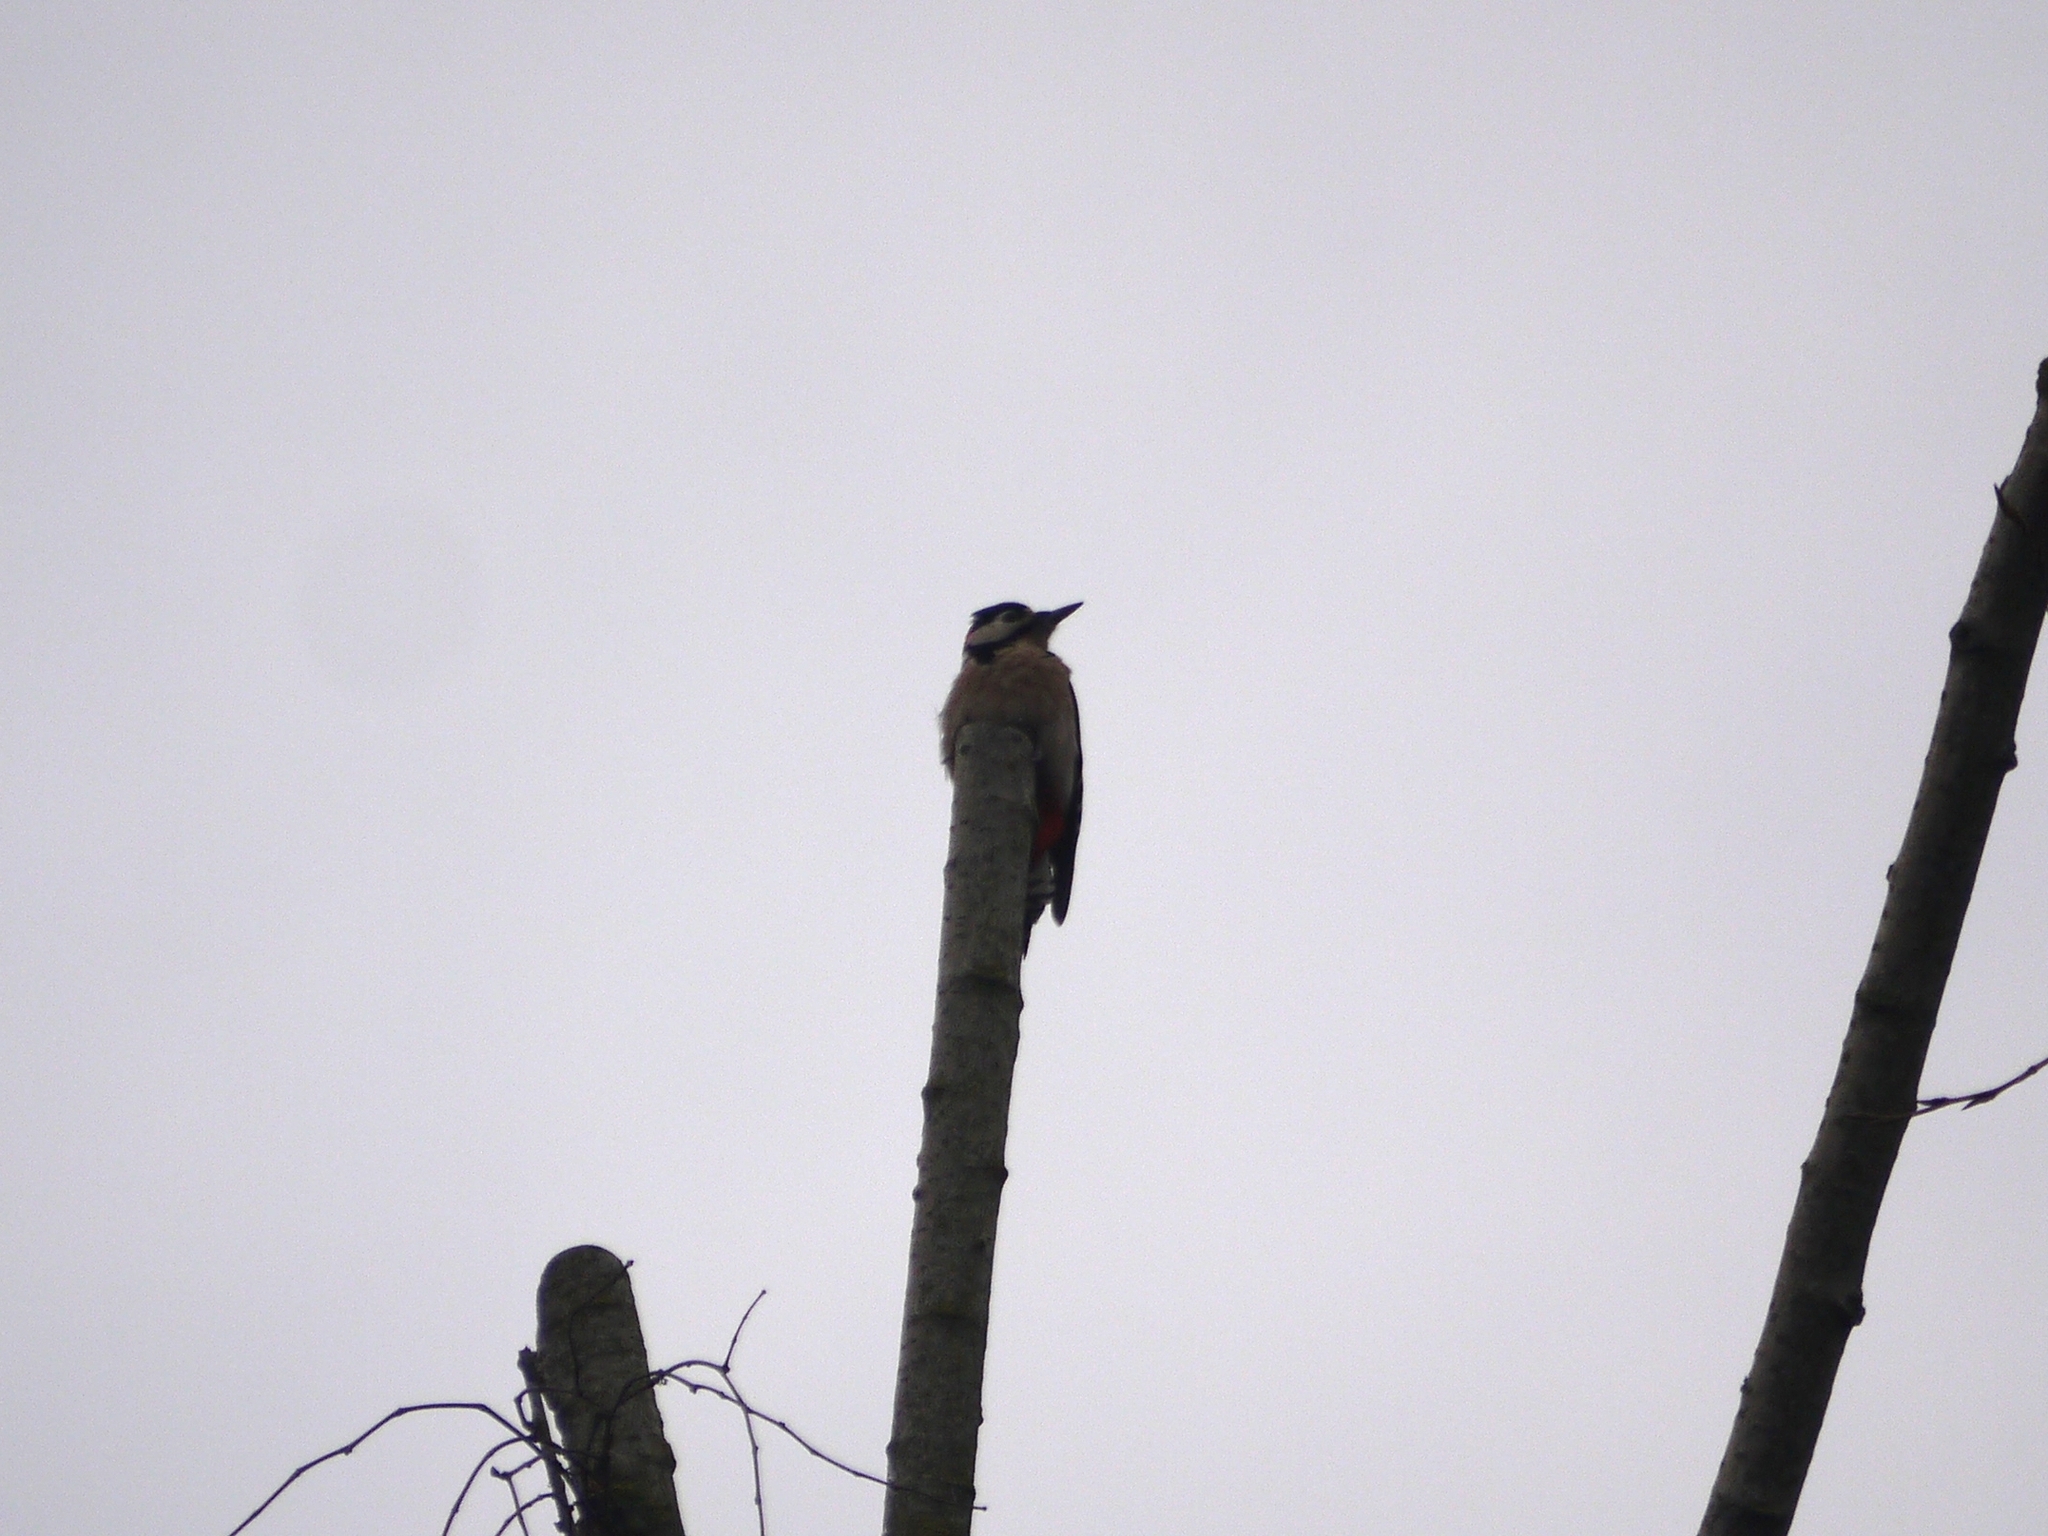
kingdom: Animalia
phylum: Chordata
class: Aves
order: Piciformes
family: Picidae
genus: Dendrocopos
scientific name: Dendrocopos major
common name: Great spotted woodpecker
